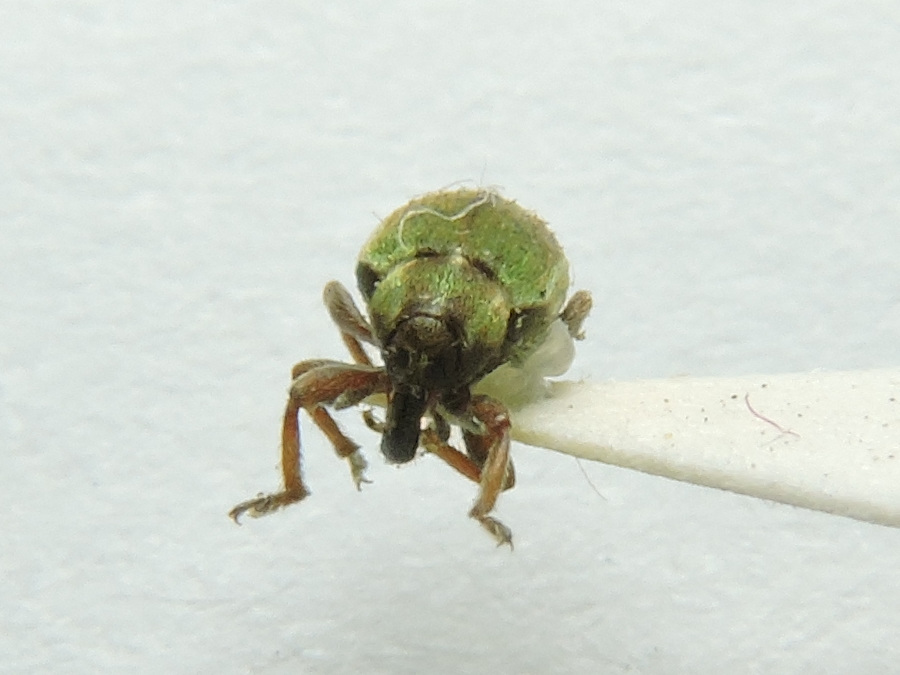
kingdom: Animalia
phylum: Arthropoda
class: Insecta
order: Coleoptera
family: Curculionidae
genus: Hypera
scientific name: Hypera nigrirostris
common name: Black-beaked green weevil
